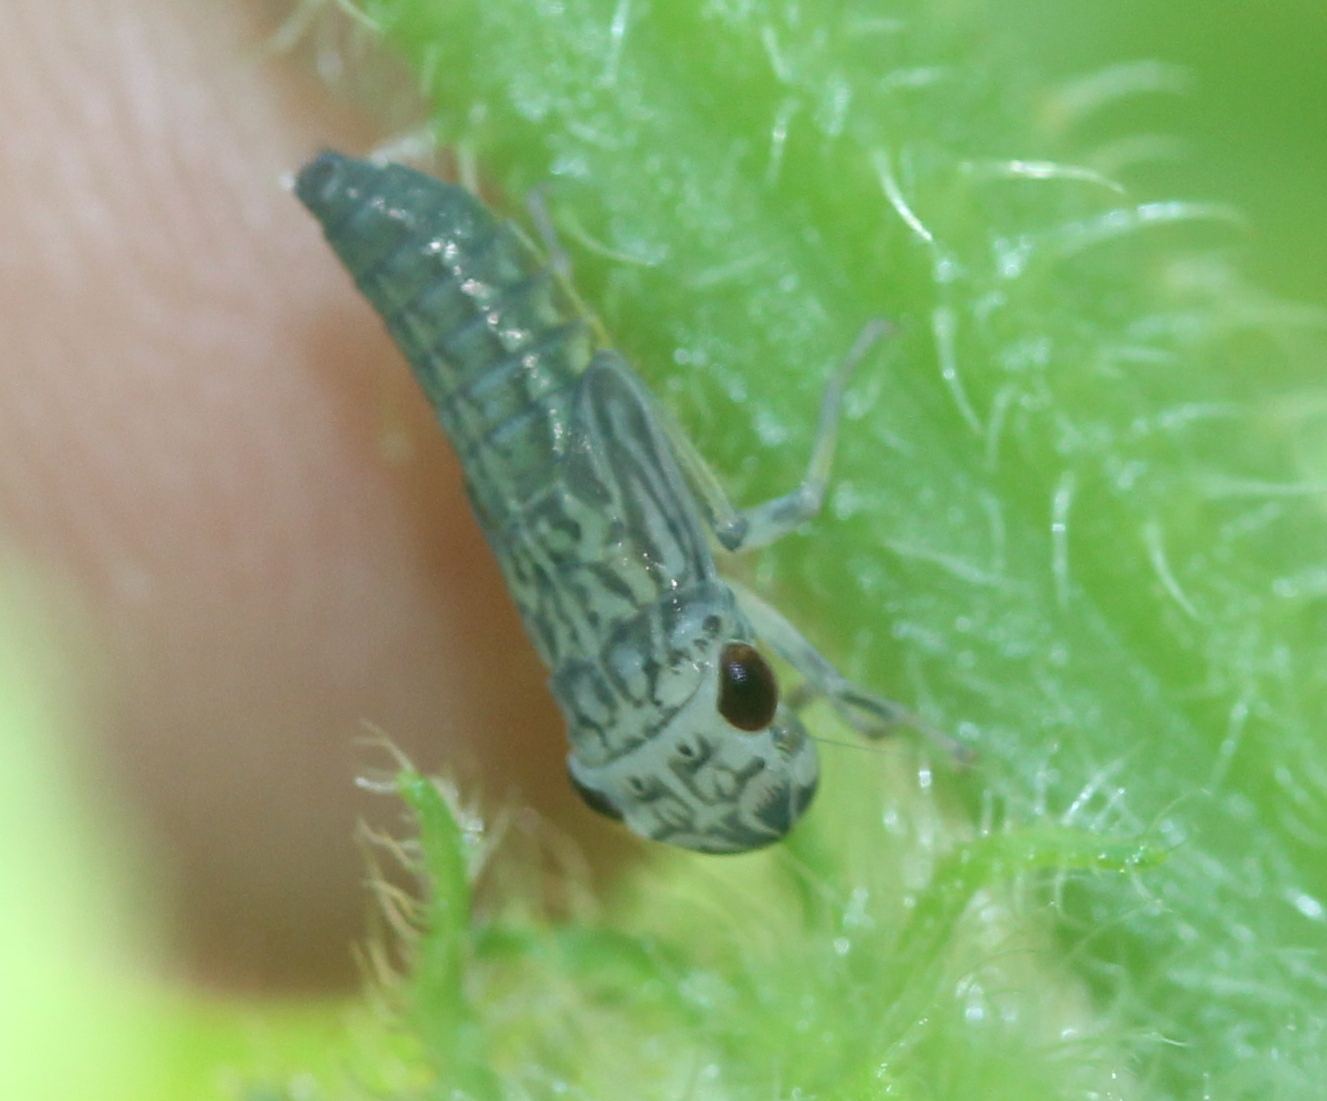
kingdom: Animalia
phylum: Arthropoda
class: Insecta
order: Hemiptera
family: Cicadellidae
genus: Oncometopia
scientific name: Oncometopia orbona
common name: Broad-headed sharpshooter
